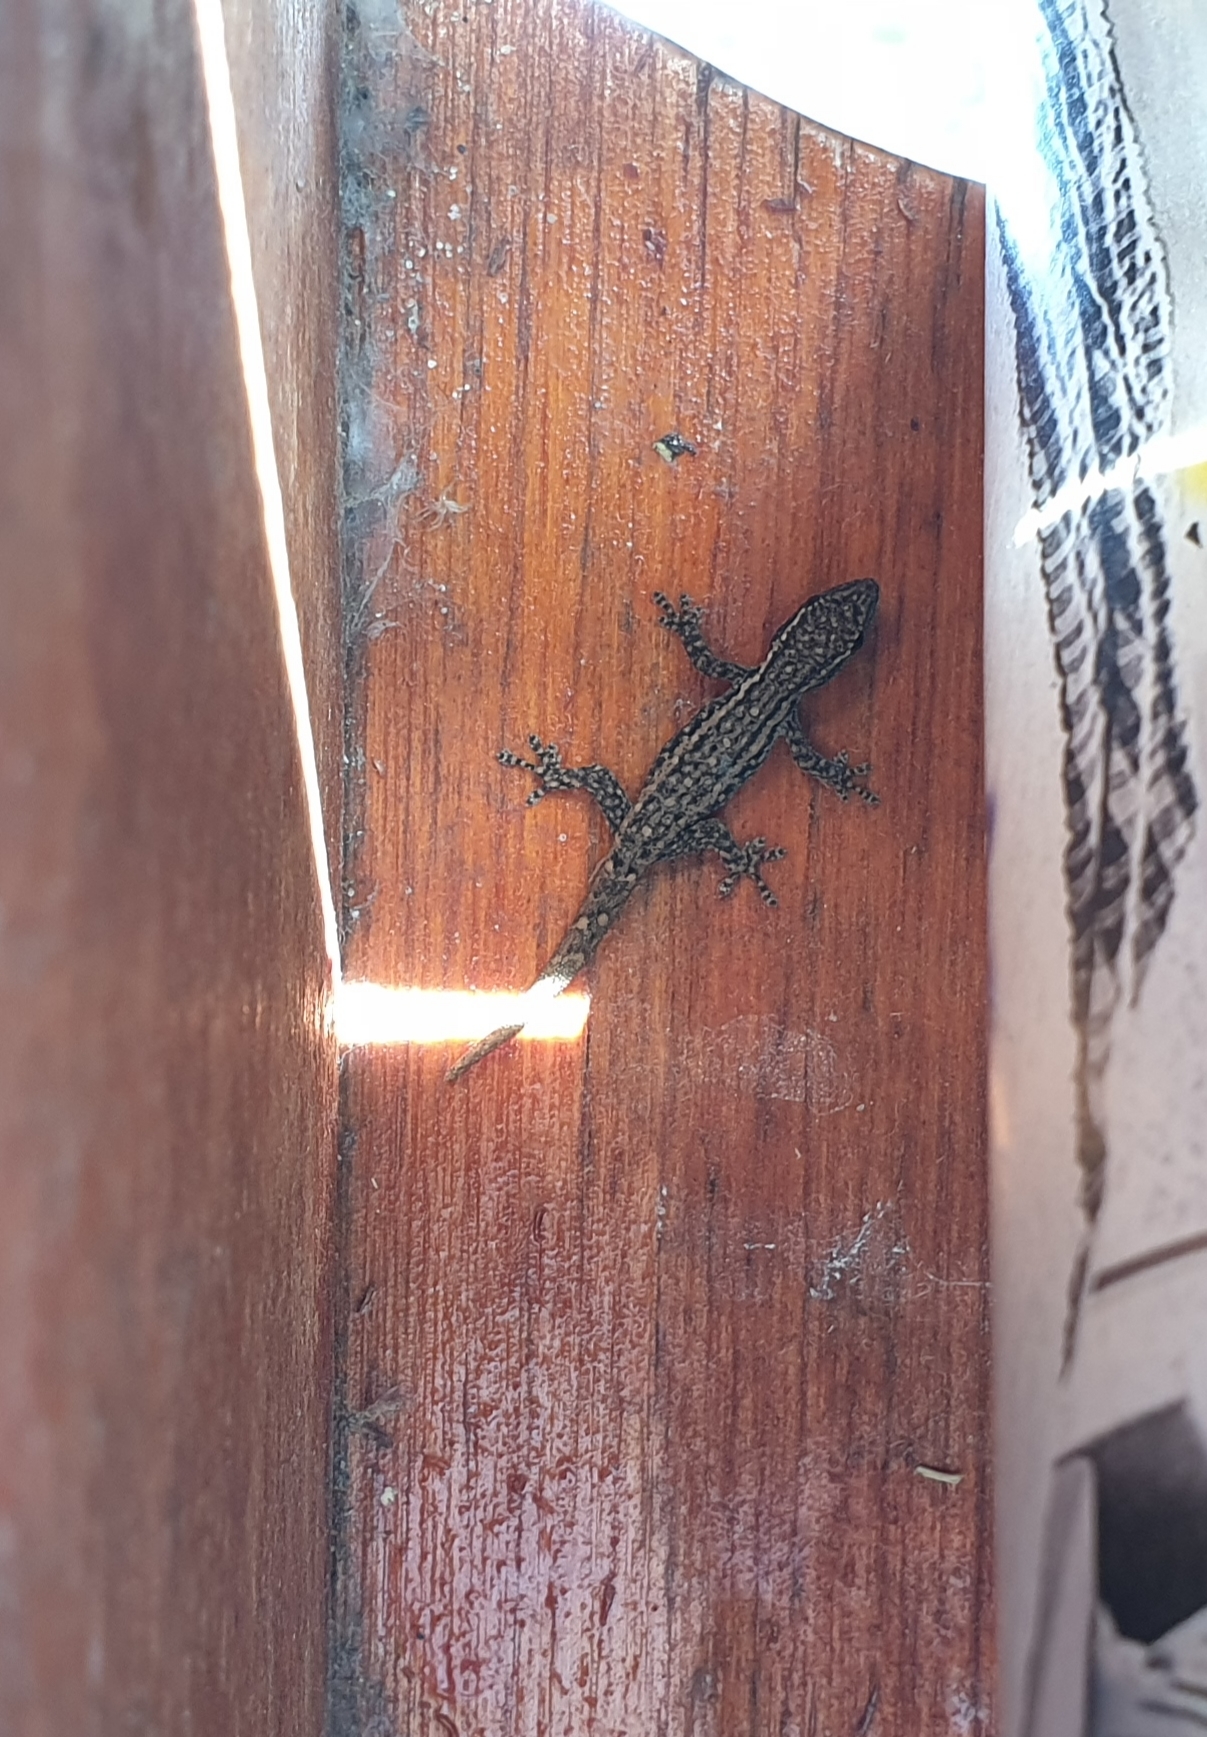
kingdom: Animalia
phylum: Chordata
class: Squamata
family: Gekkonidae
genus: Lygodactylus
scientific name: Lygodactylus capensis
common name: Cape dwarf gecko
